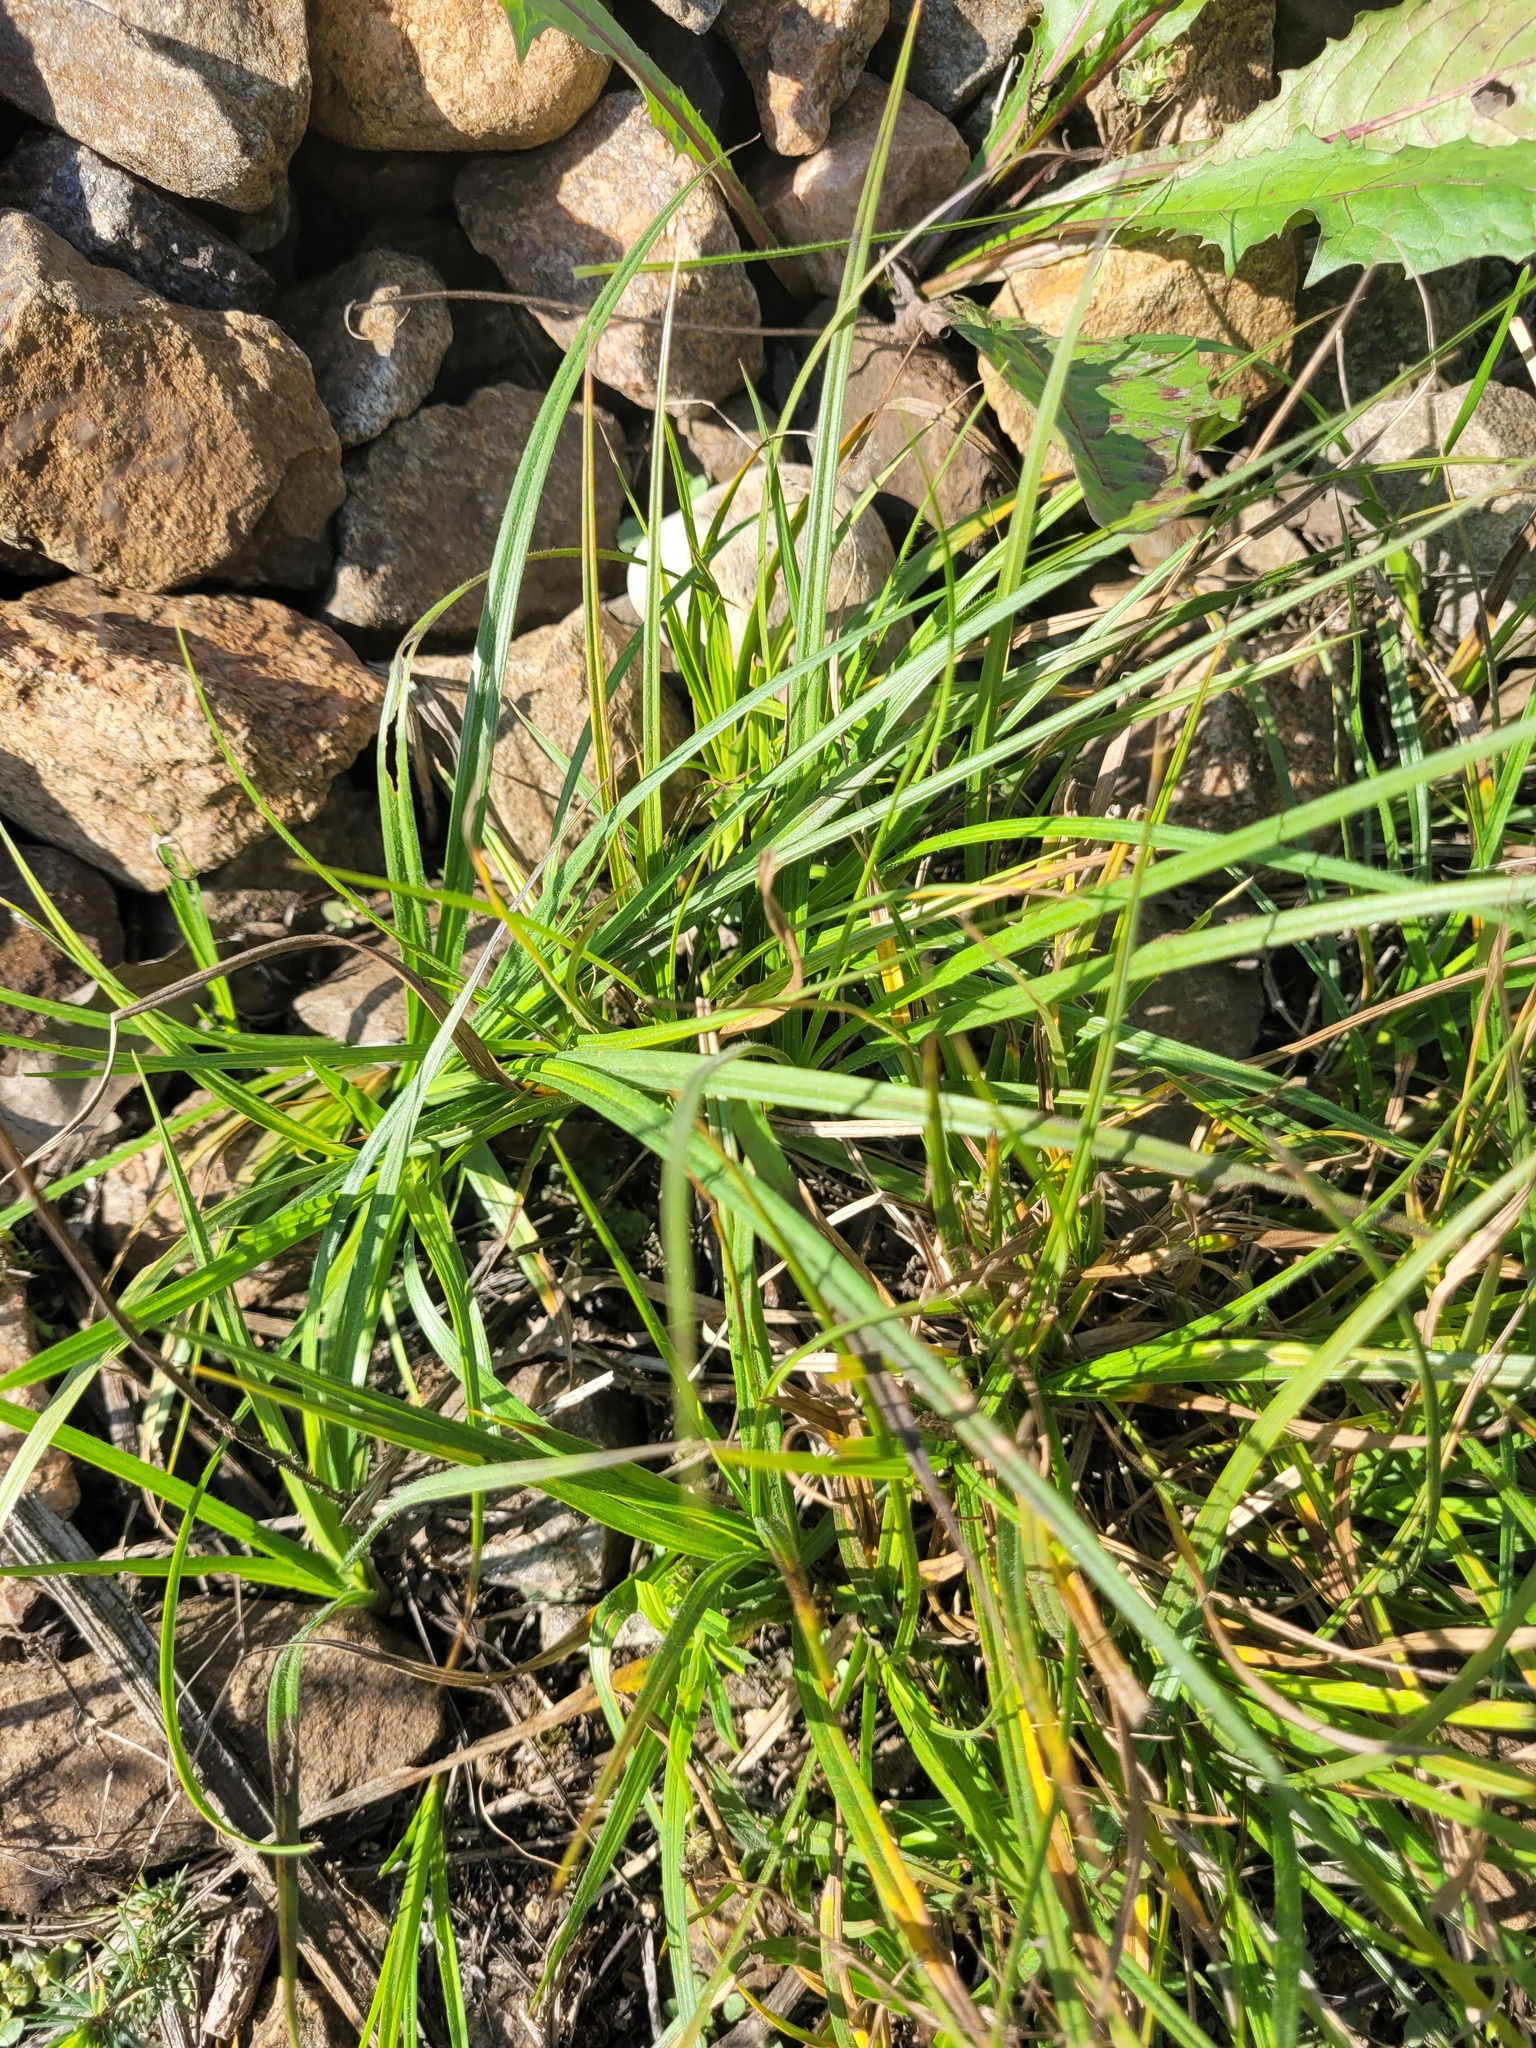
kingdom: Plantae
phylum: Tracheophyta
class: Liliopsida
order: Poales
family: Cyperaceae
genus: Carex
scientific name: Carex hirta
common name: Hairy sedge
